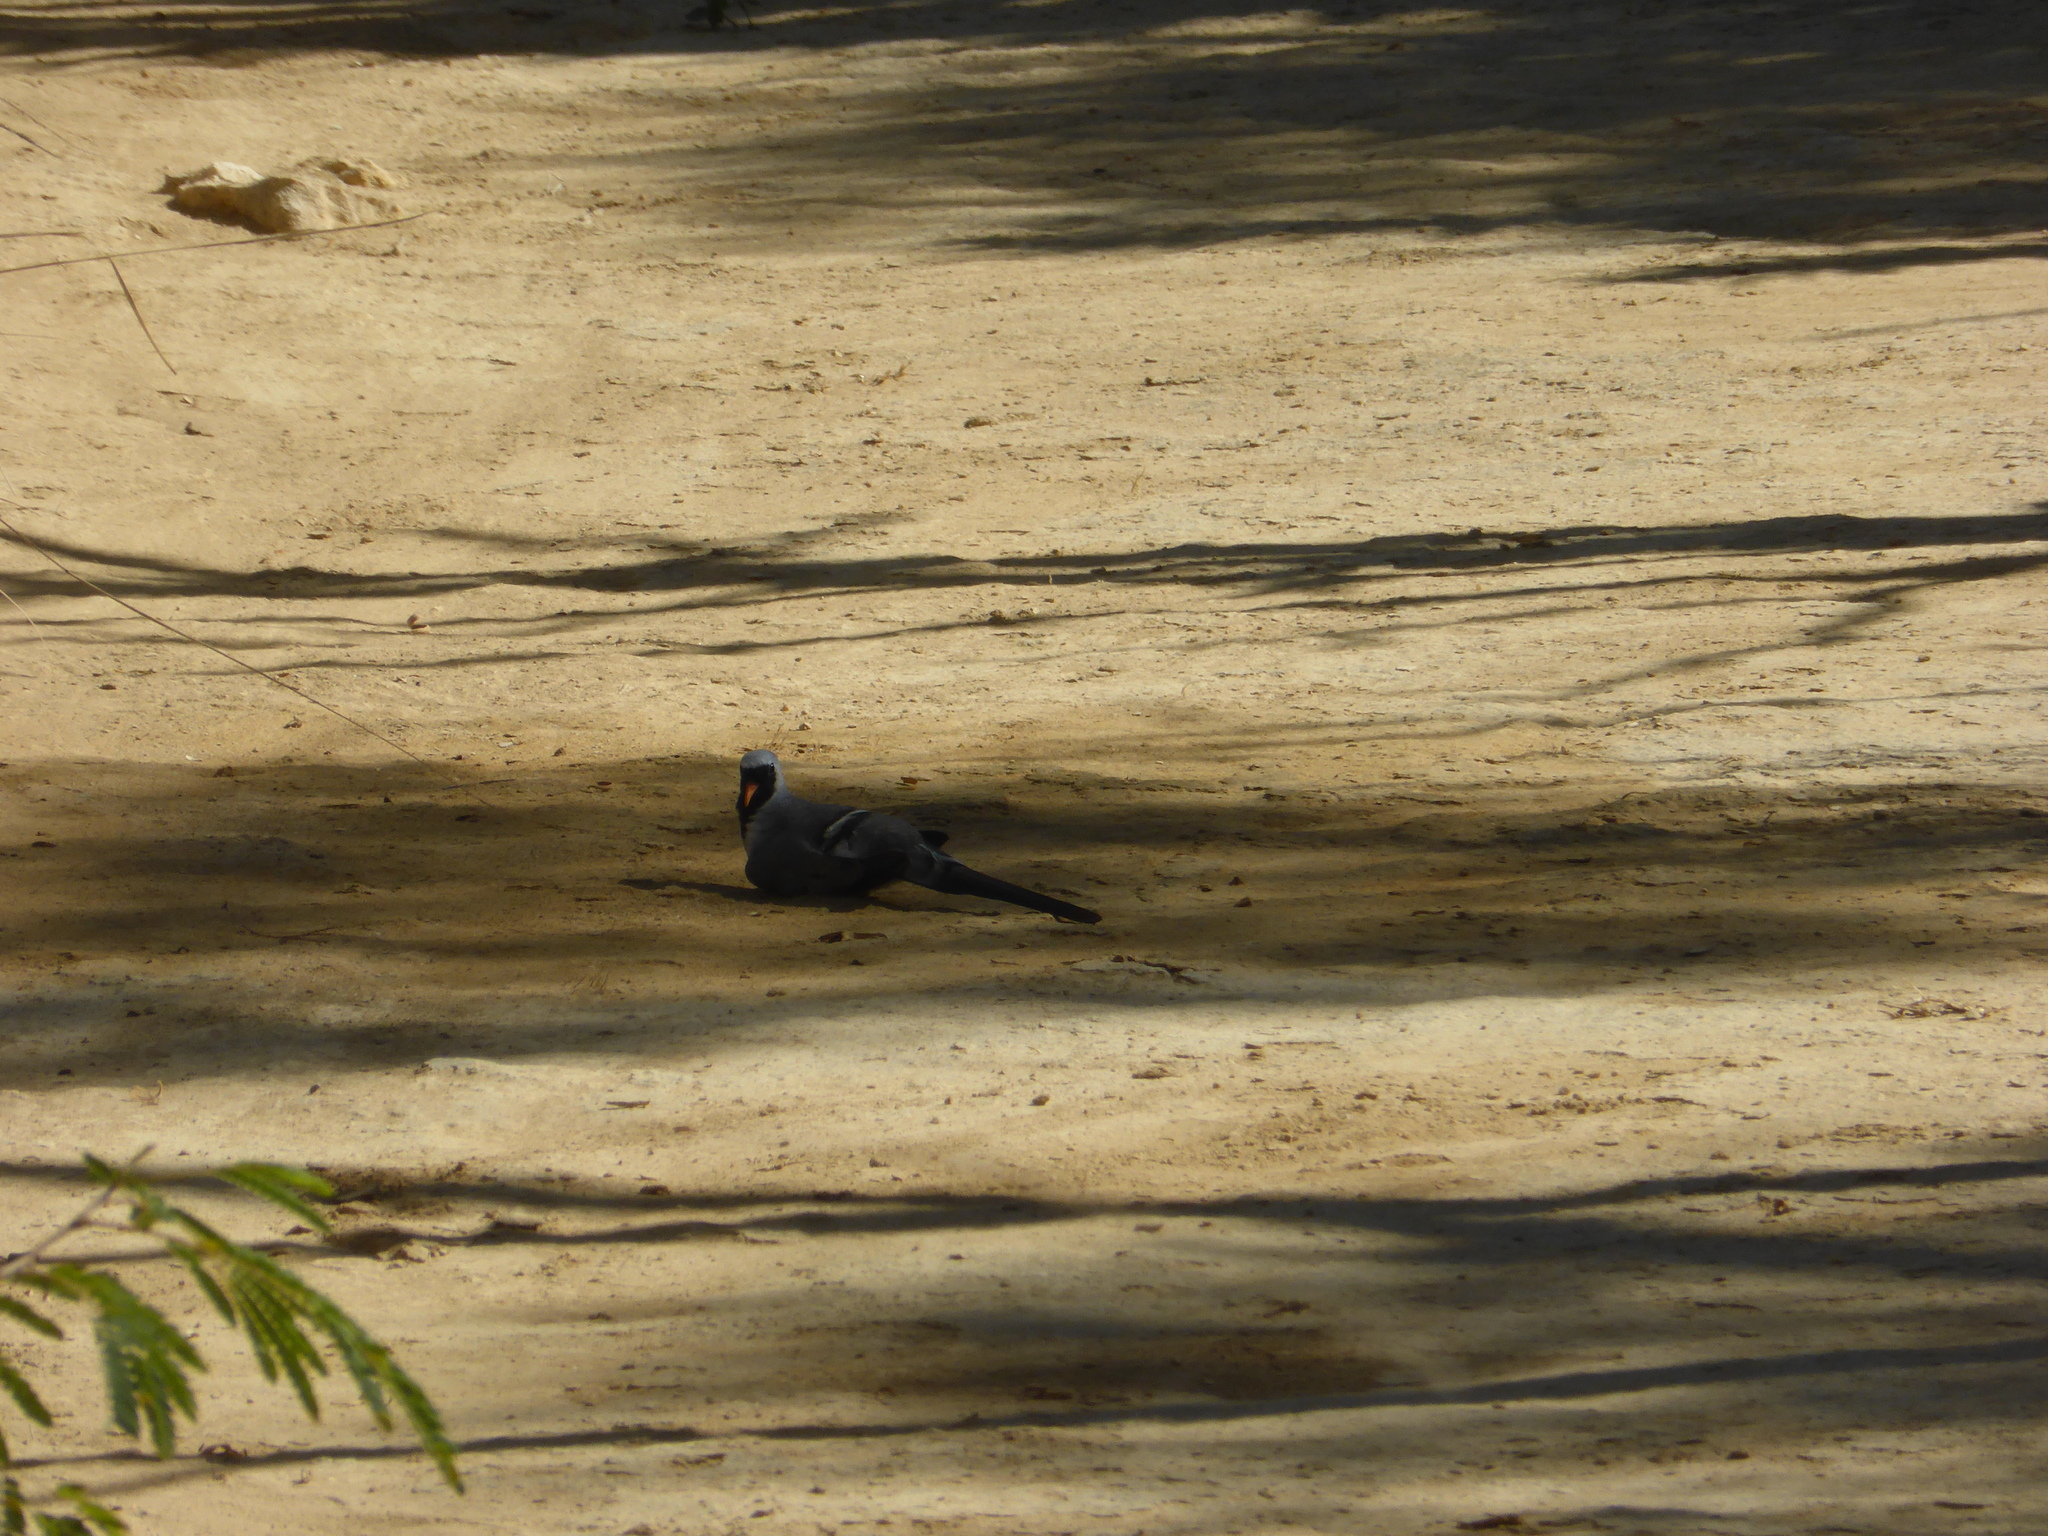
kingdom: Animalia
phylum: Chordata
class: Aves
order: Columbiformes
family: Columbidae
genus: Oena
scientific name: Oena capensis
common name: Namaqua dove
